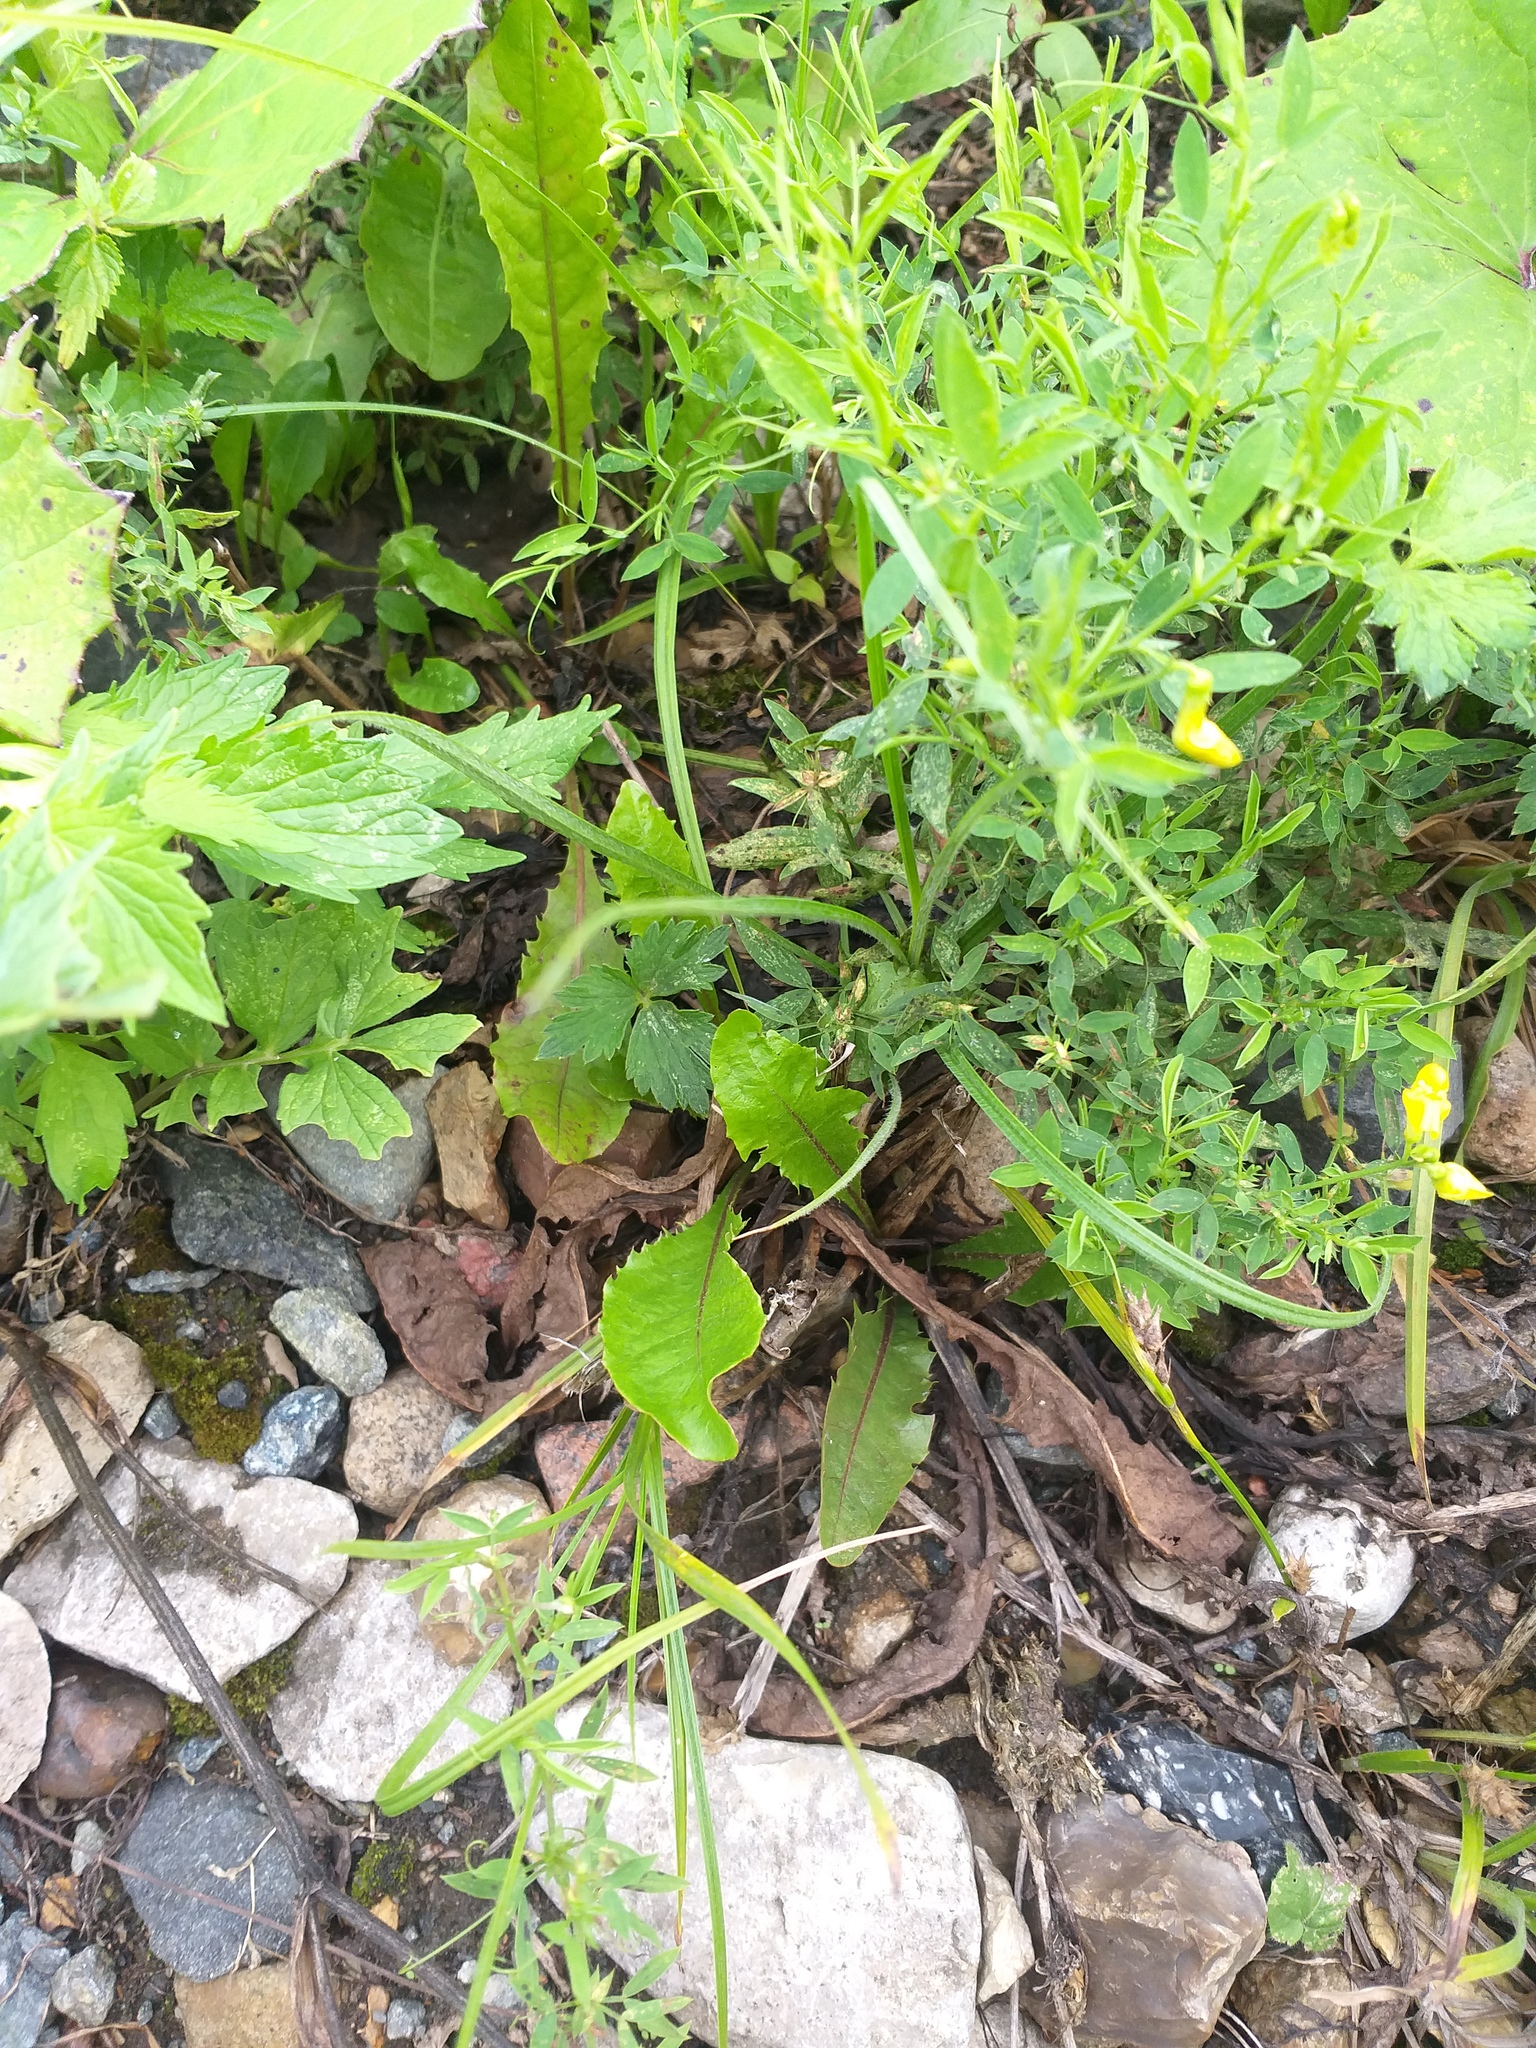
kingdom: Plantae
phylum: Tracheophyta
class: Magnoliopsida
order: Asterales
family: Asteraceae
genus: Taraxacum
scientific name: Taraxacum officinale
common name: Common dandelion
